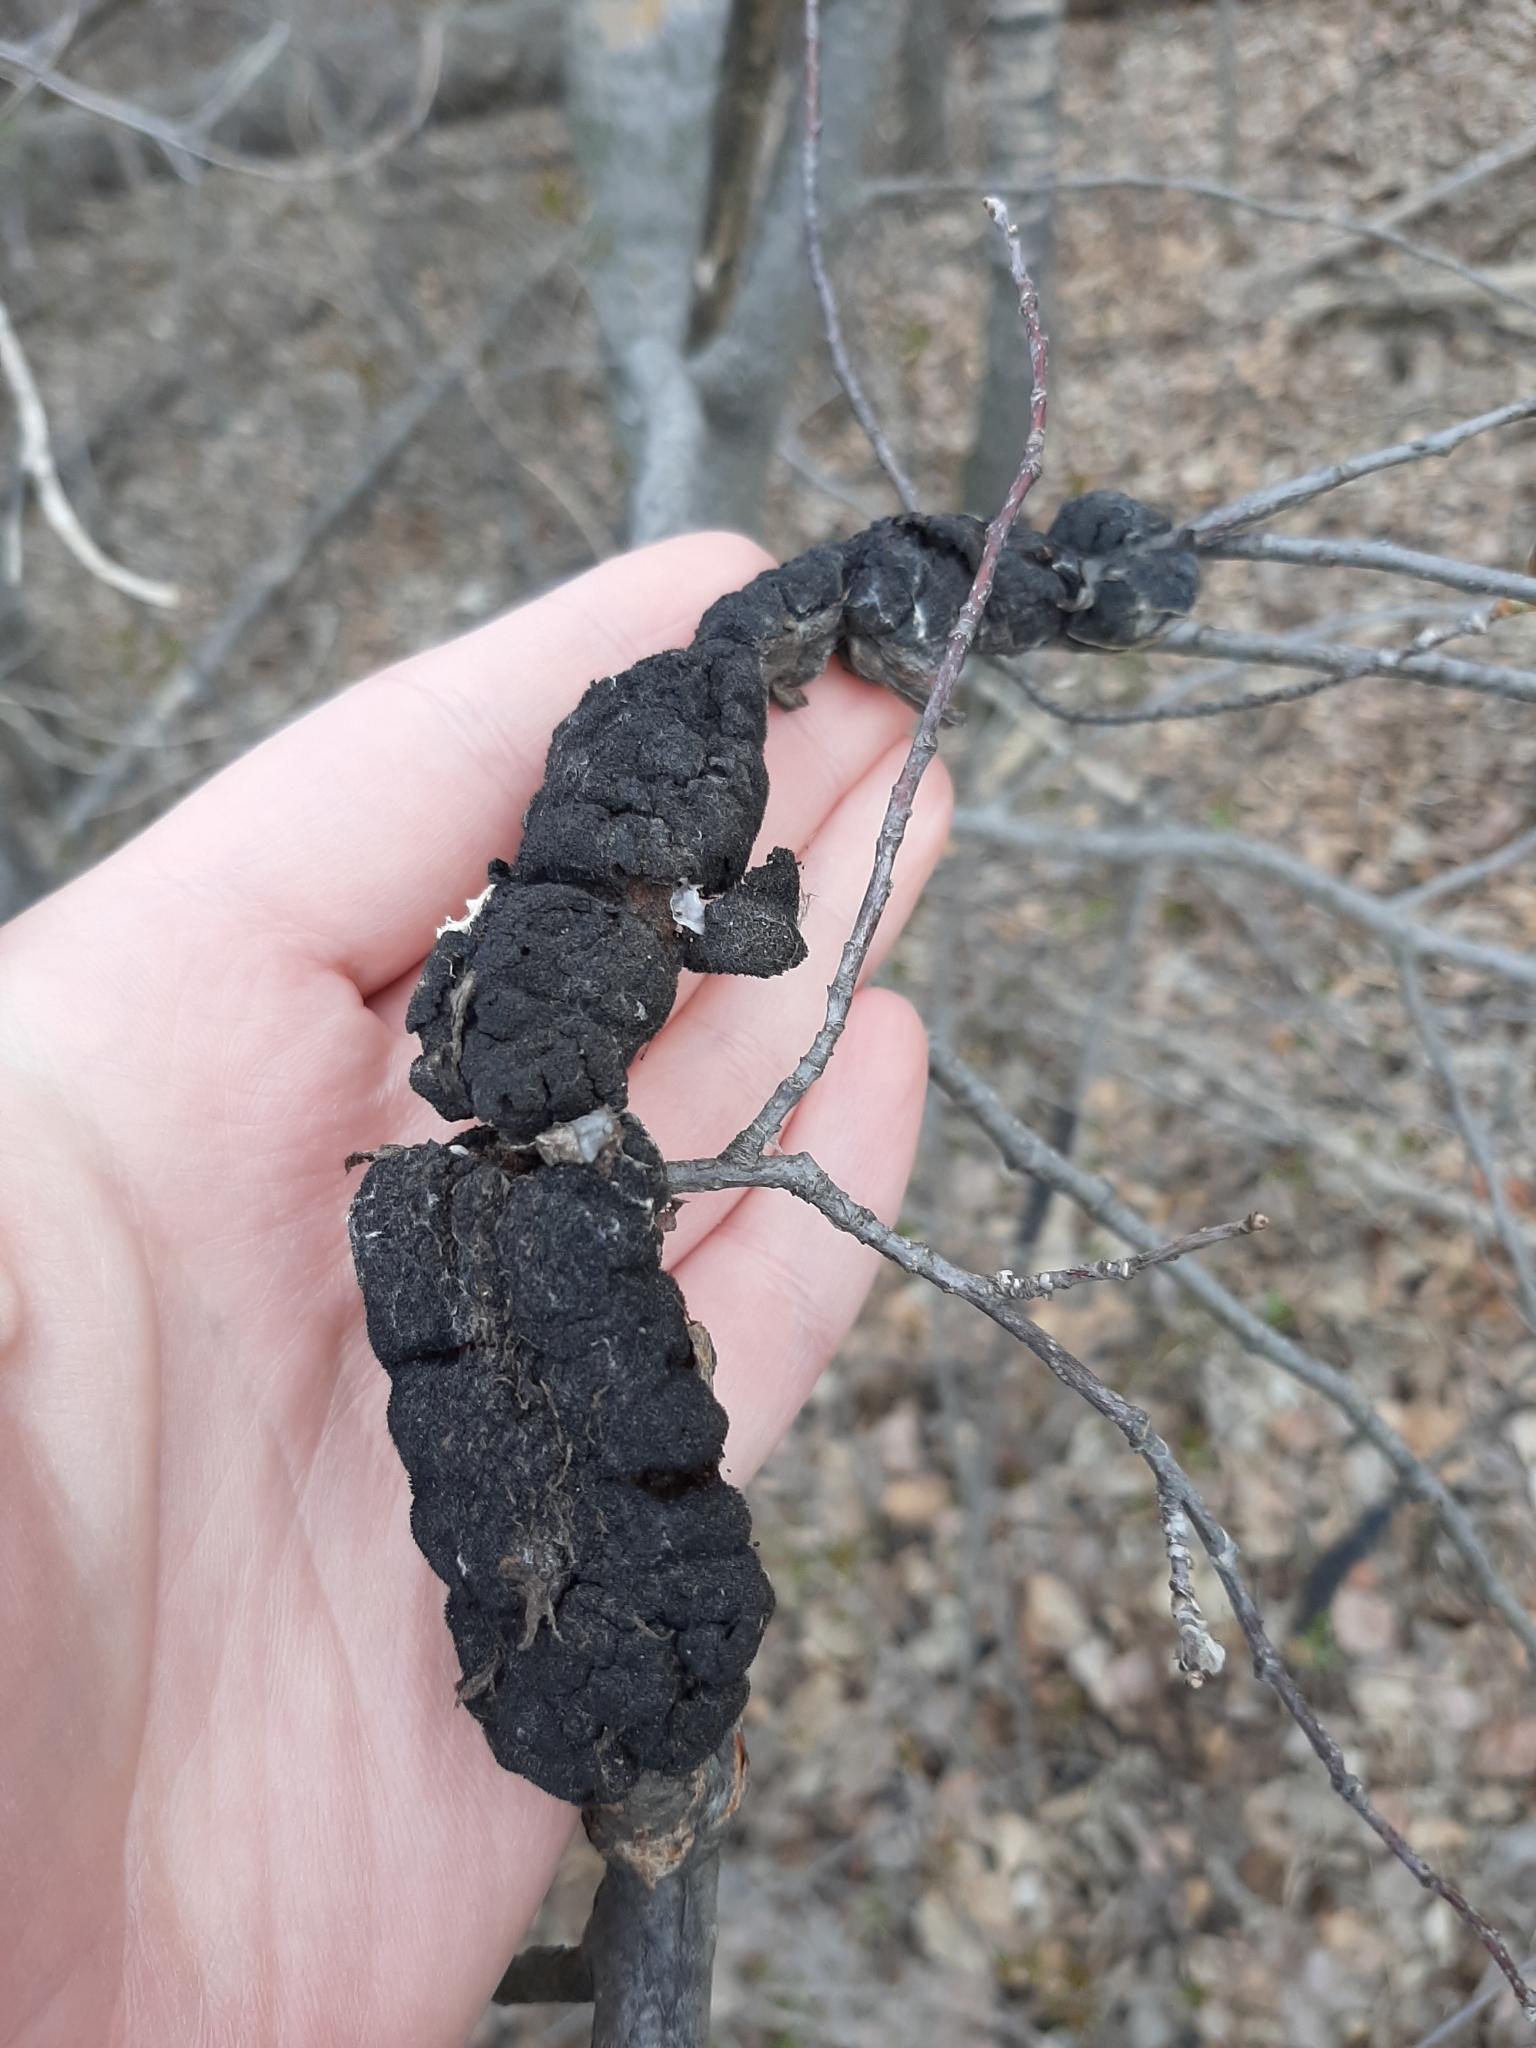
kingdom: Fungi
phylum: Ascomycota
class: Dothideomycetes
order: Venturiales
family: Venturiaceae
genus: Apiosporina
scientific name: Apiosporina morbosa
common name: Black knot
